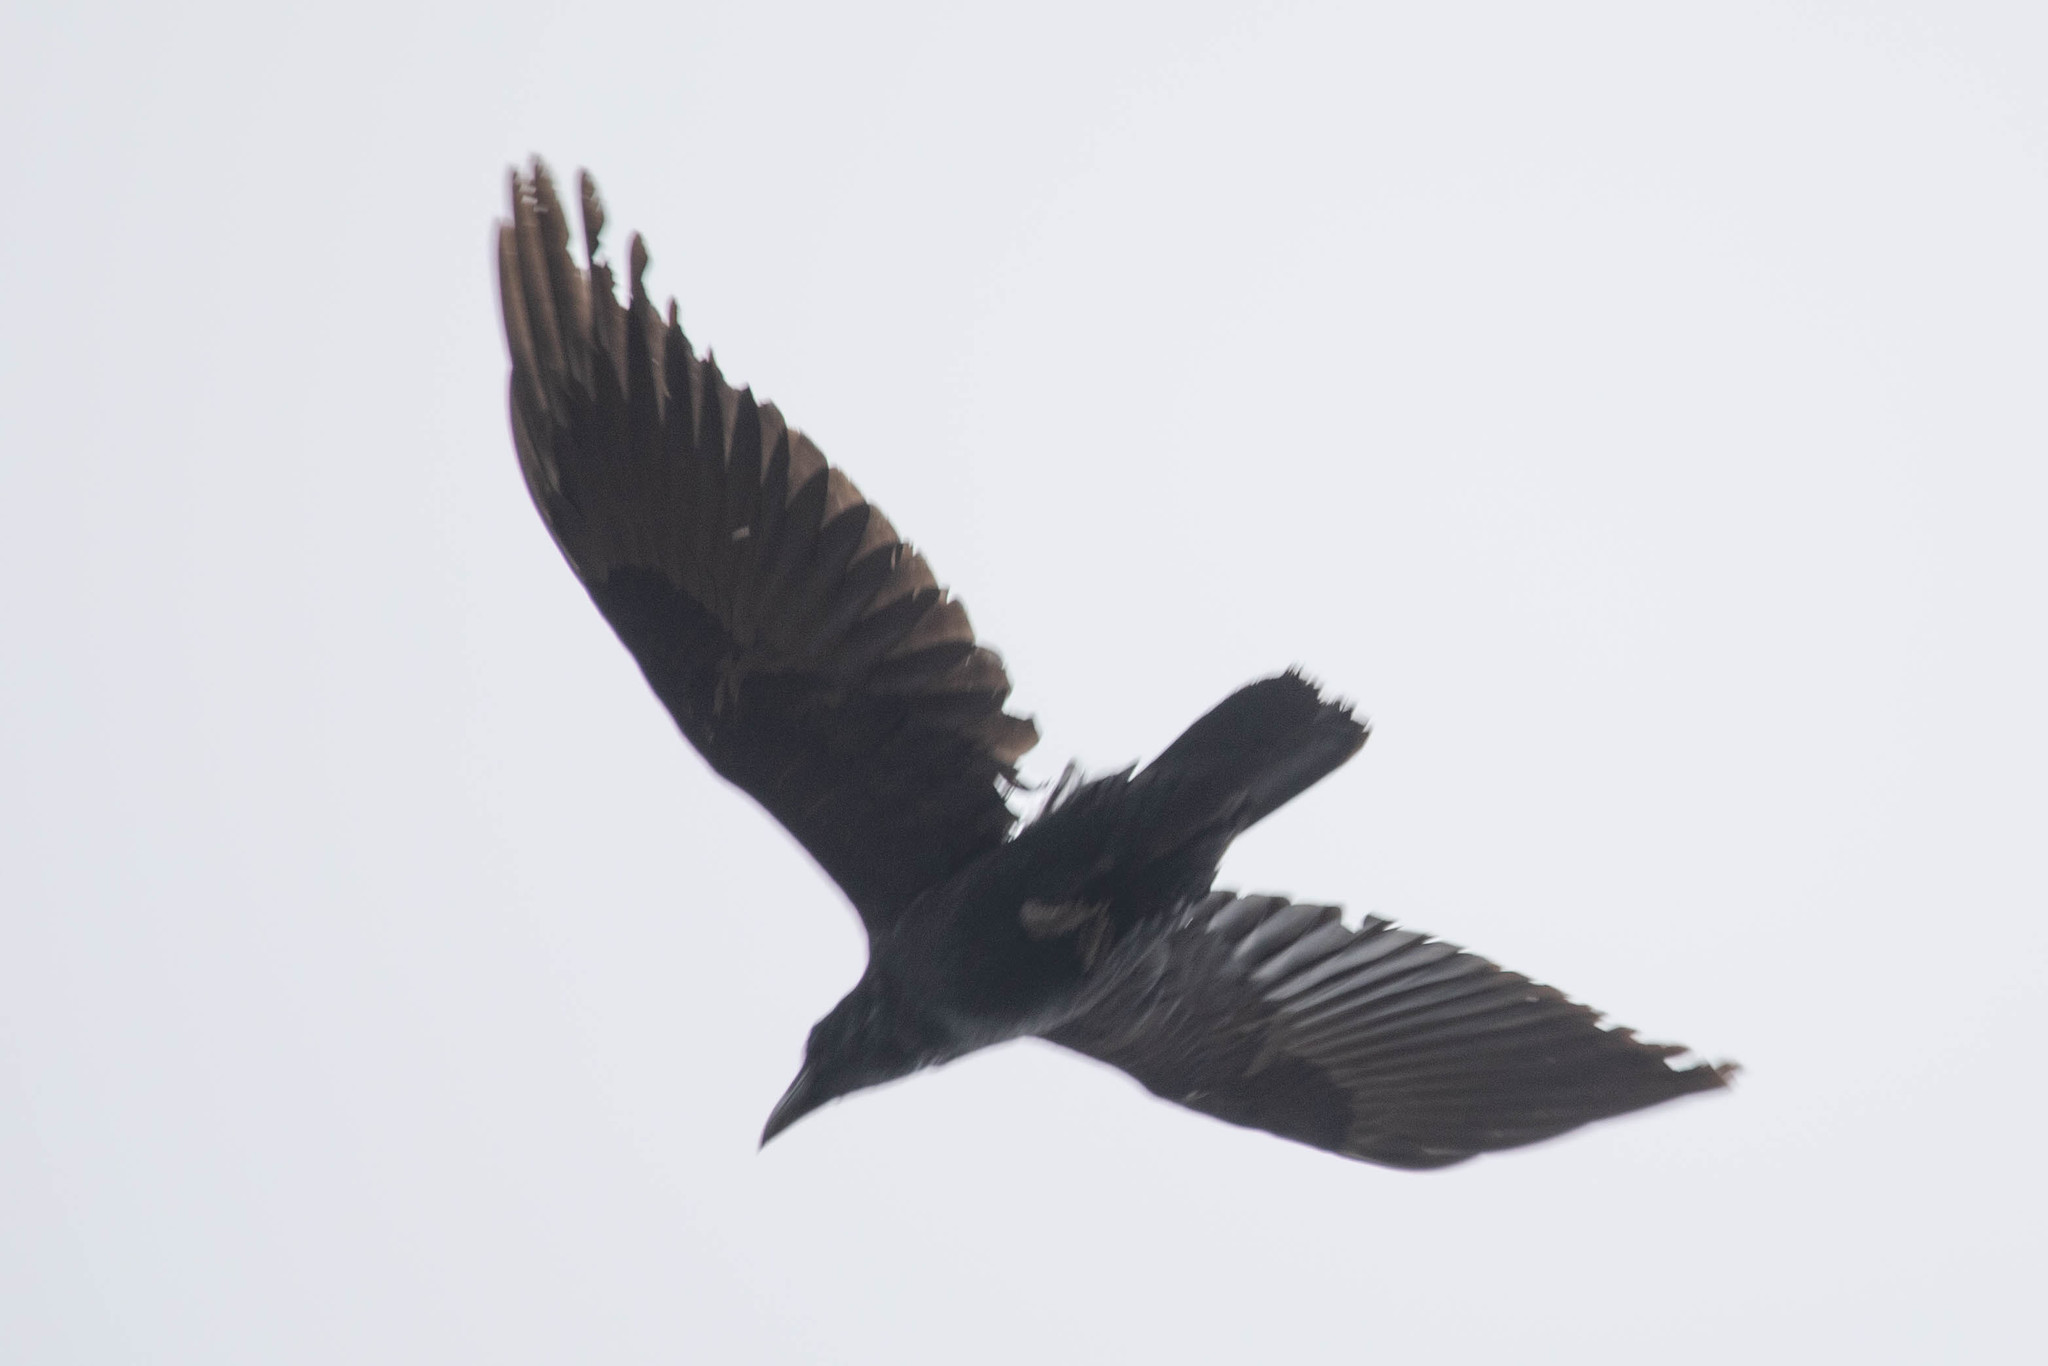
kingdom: Animalia
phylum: Chordata
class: Aves
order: Passeriformes
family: Corvidae
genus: Corvus
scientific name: Corvus corax
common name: Common raven
